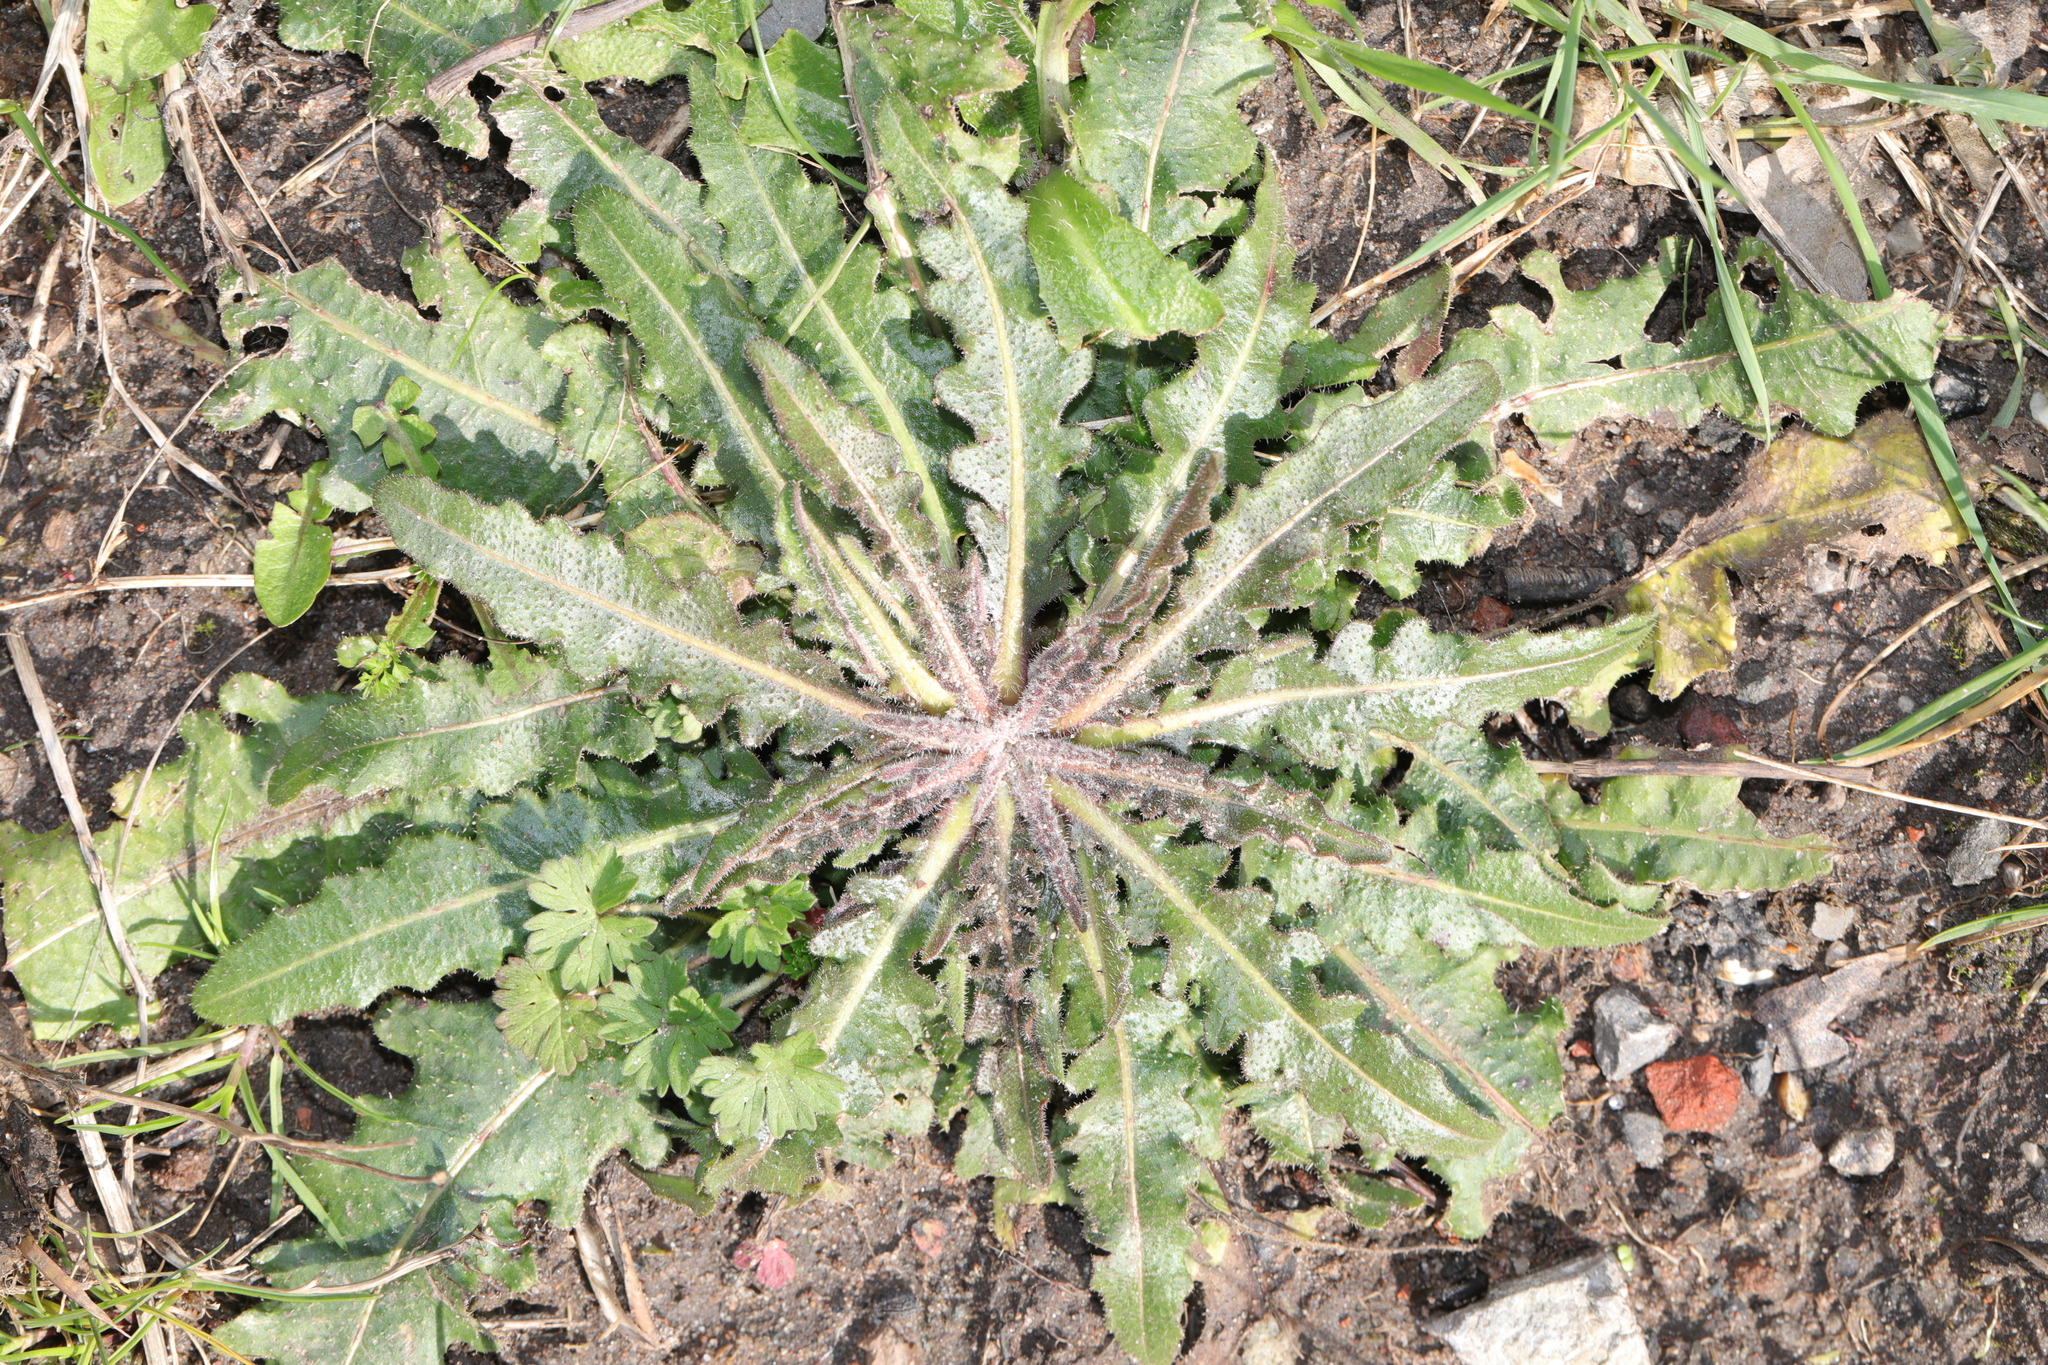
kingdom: Plantae
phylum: Tracheophyta
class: Magnoliopsida
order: Asterales
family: Asteraceae
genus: Hypochaeris
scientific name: Hypochaeris radicata
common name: Flatweed
